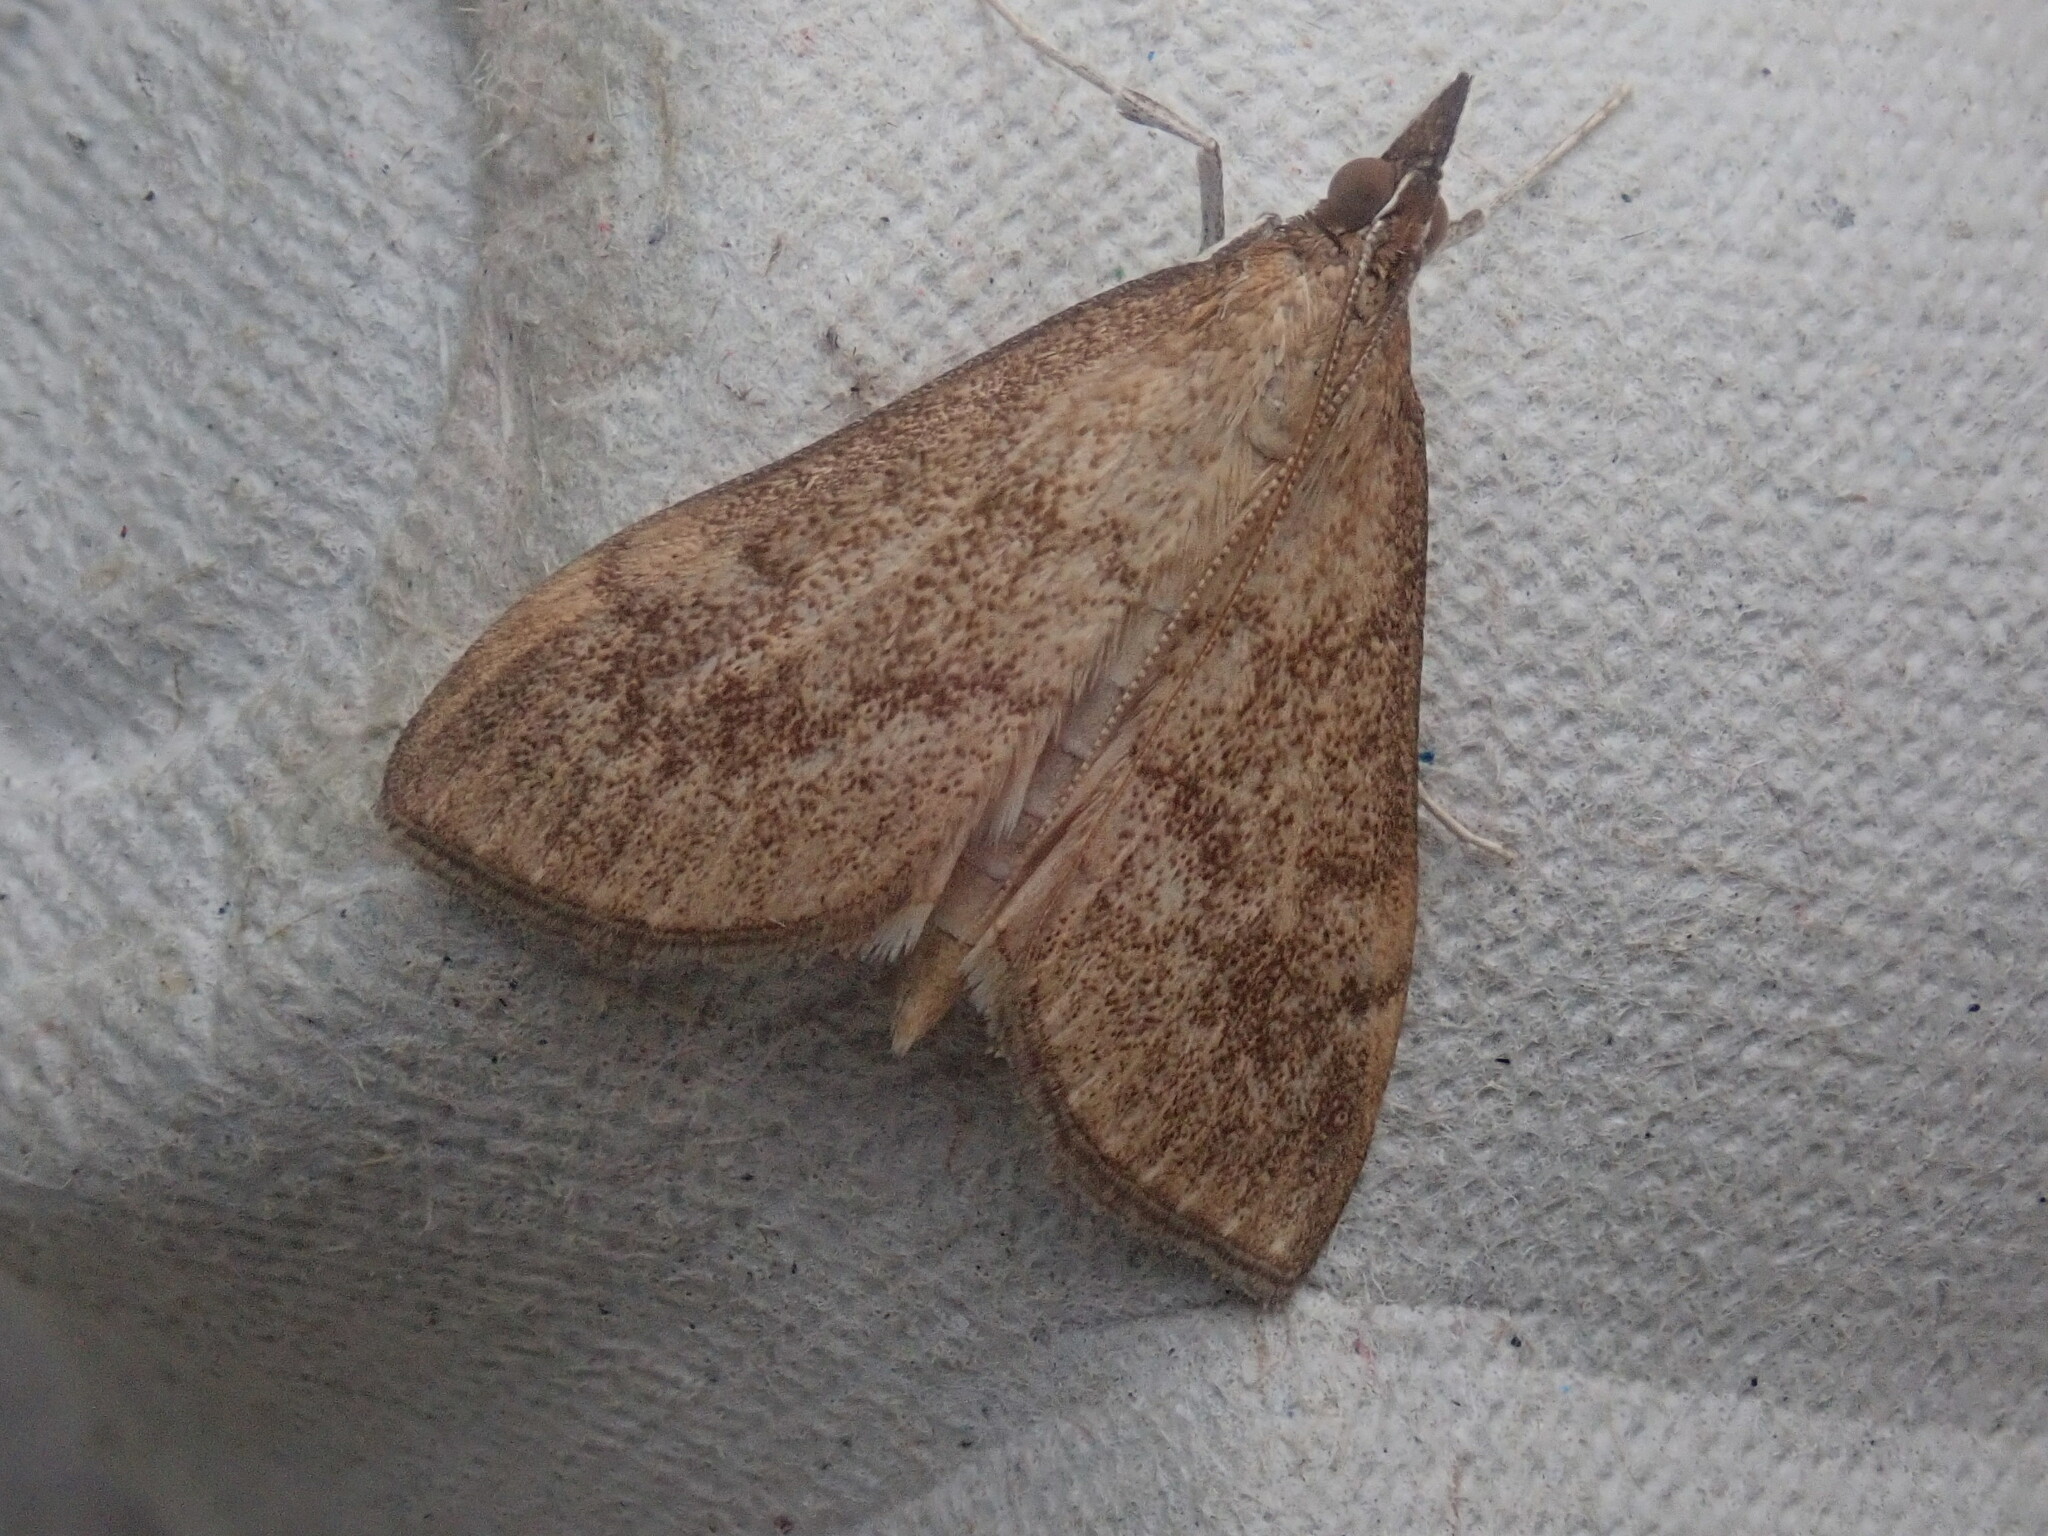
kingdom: Animalia
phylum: Arthropoda
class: Insecta
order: Lepidoptera
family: Crambidae
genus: Saucrobotys
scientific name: Saucrobotys futilalis
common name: Dogbane saucrobotys moth
